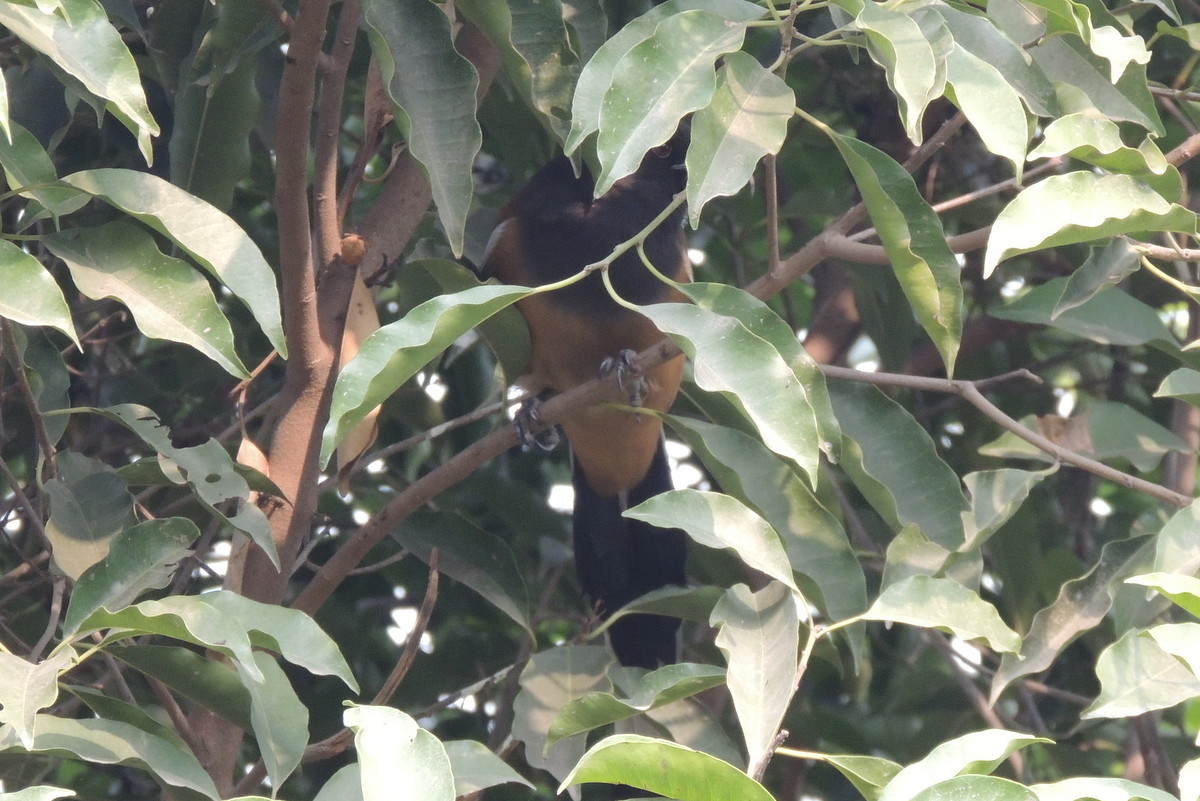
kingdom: Animalia
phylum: Chordata
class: Aves
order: Passeriformes
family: Corvidae
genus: Dendrocitta
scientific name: Dendrocitta vagabunda
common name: Rufous treepie
